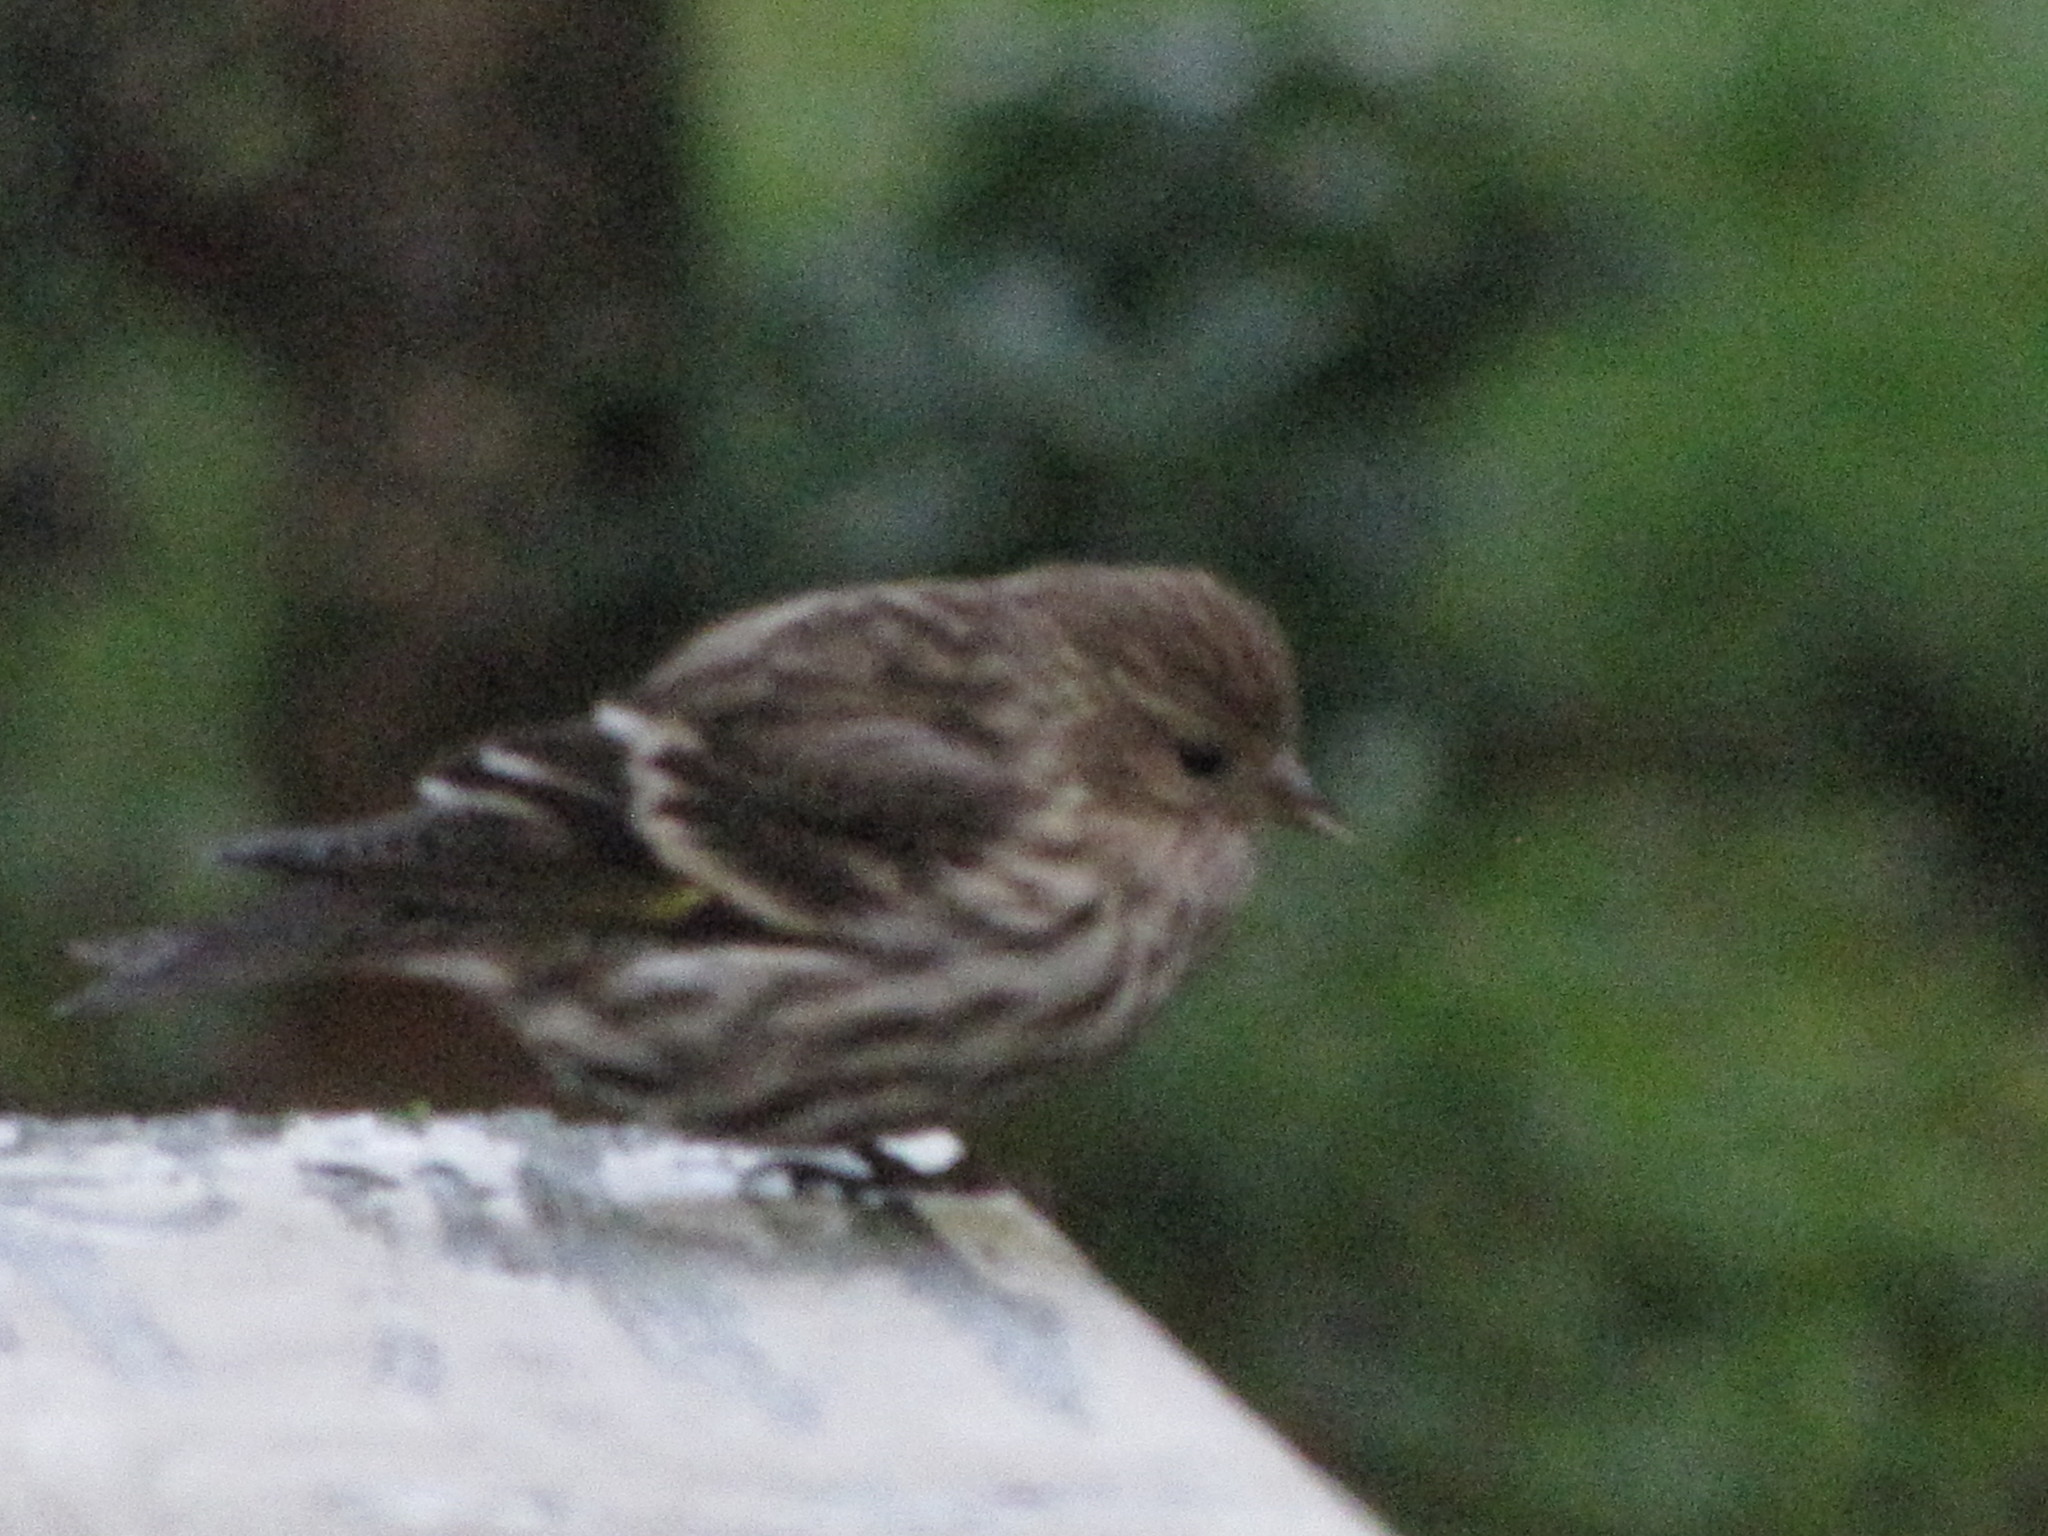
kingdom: Animalia
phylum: Chordata
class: Aves
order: Passeriformes
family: Fringillidae
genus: Spinus
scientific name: Spinus pinus
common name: Pine siskin
